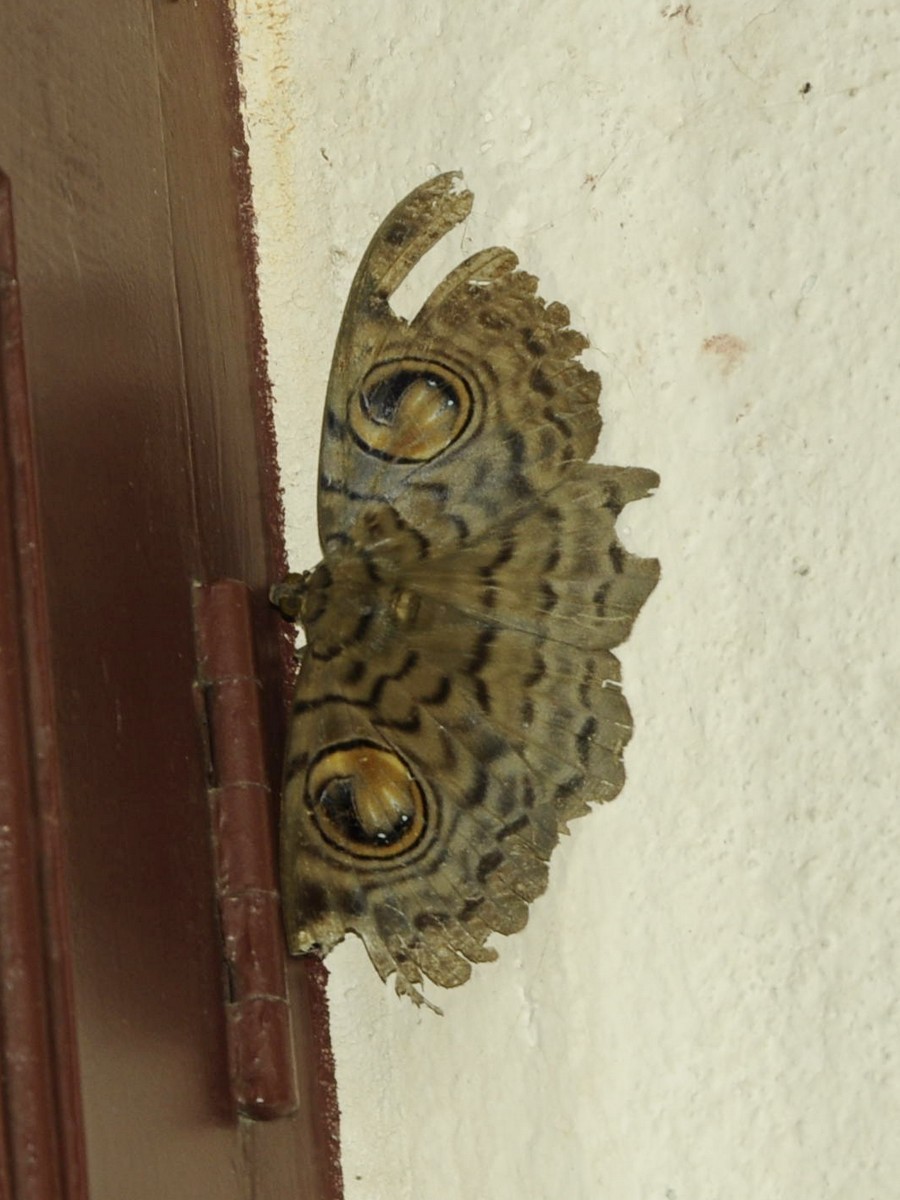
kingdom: Animalia
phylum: Arthropoda
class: Insecta
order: Lepidoptera
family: Erebidae
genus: Erebus
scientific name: Erebus macrops
